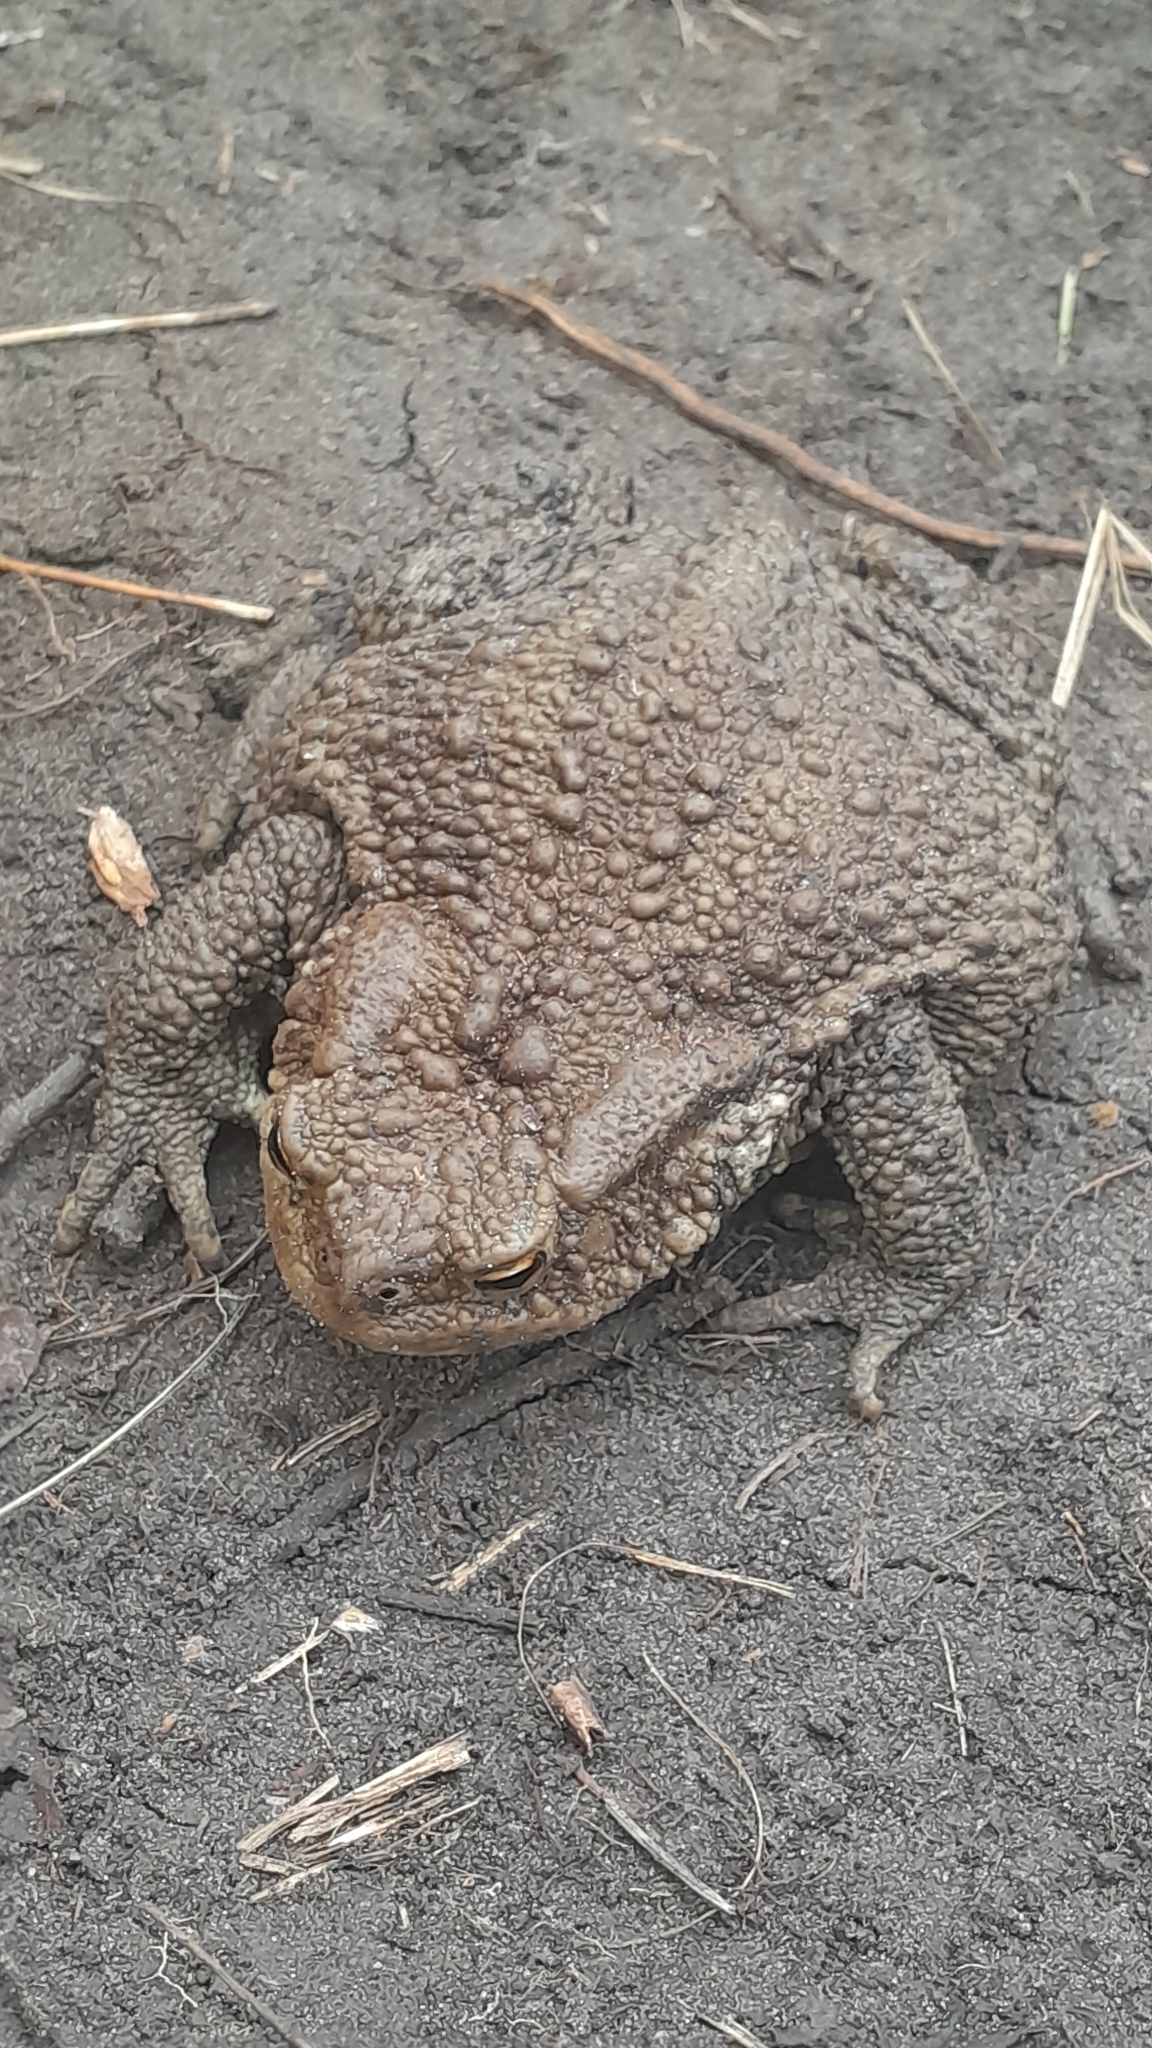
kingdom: Animalia
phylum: Chordata
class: Amphibia
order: Anura
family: Bufonidae
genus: Bufo
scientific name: Bufo bufo
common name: Common toad
